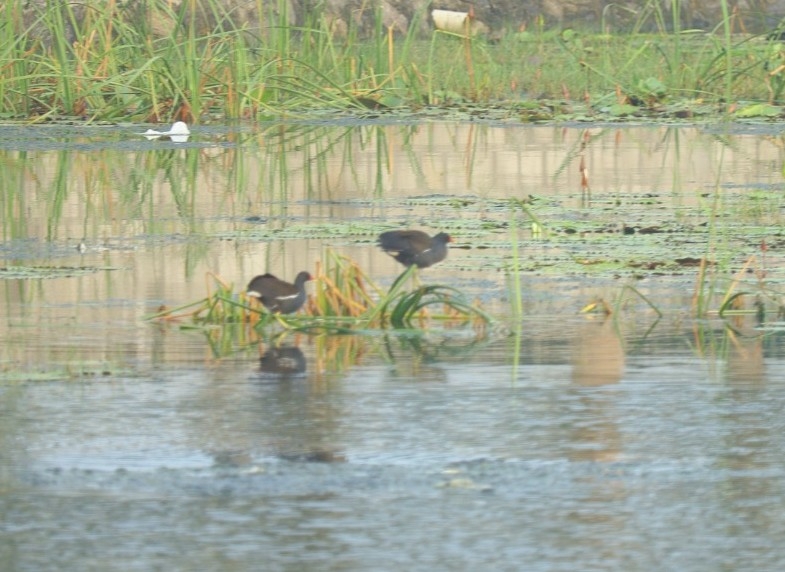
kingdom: Animalia
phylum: Chordata
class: Aves
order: Gruiformes
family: Rallidae
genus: Gallinula
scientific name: Gallinula chloropus
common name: Common moorhen
